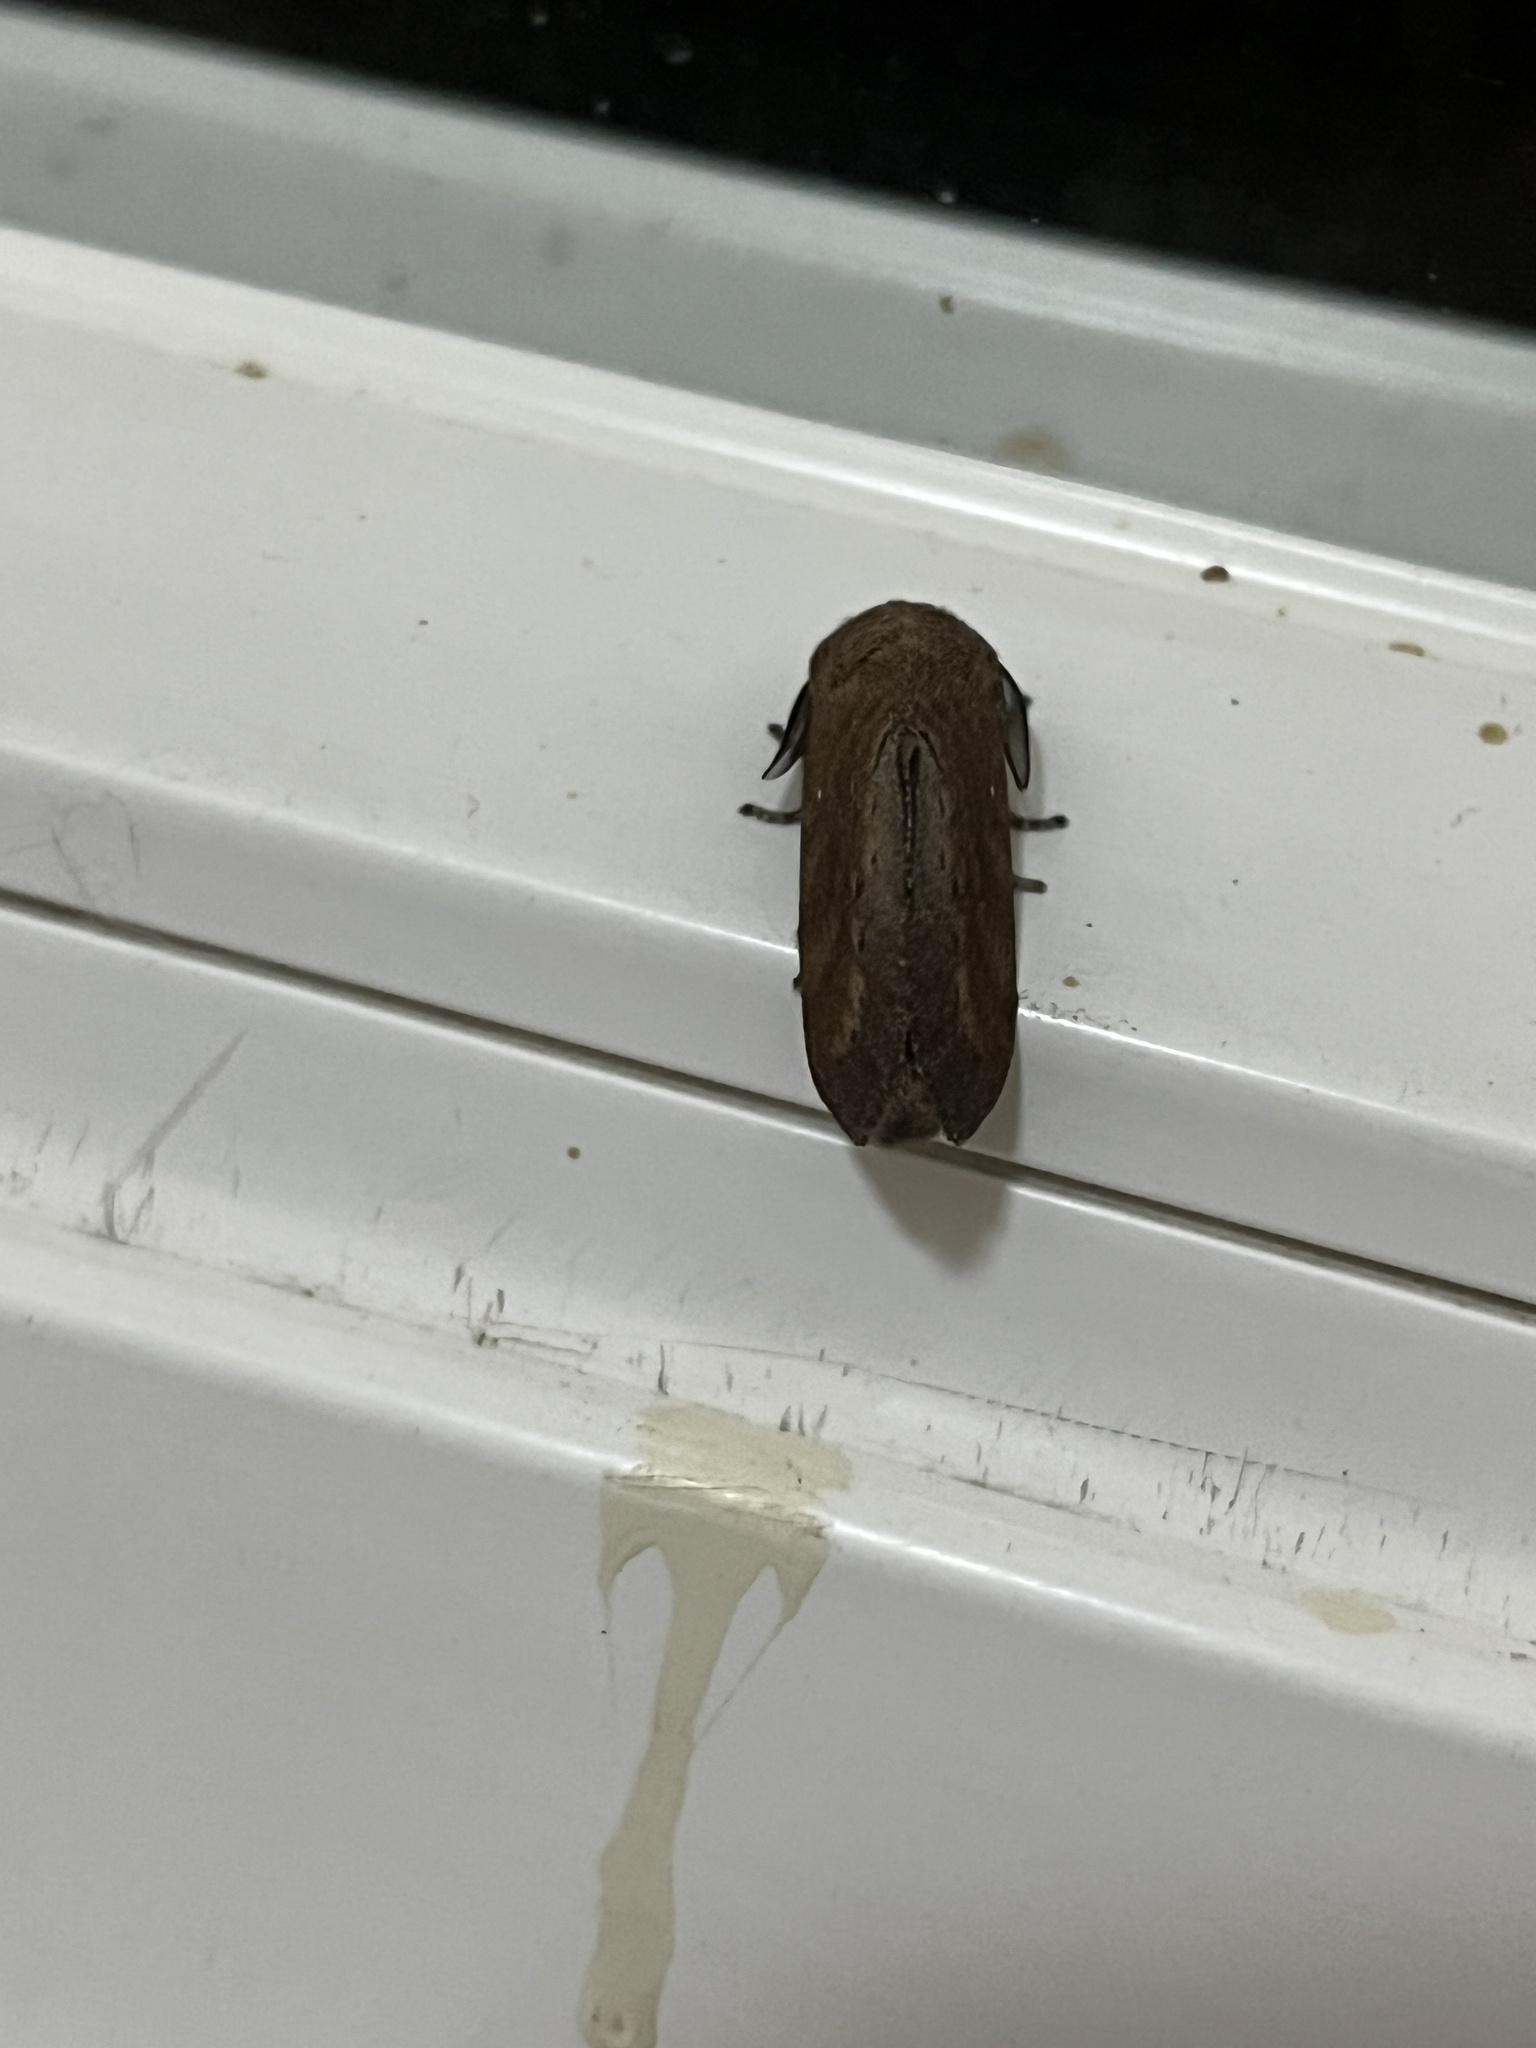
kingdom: Animalia
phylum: Arthropoda
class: Insecta
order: Lepidoptera
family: Lasiocampidae
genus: Kunugia
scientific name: Kunugia undans
